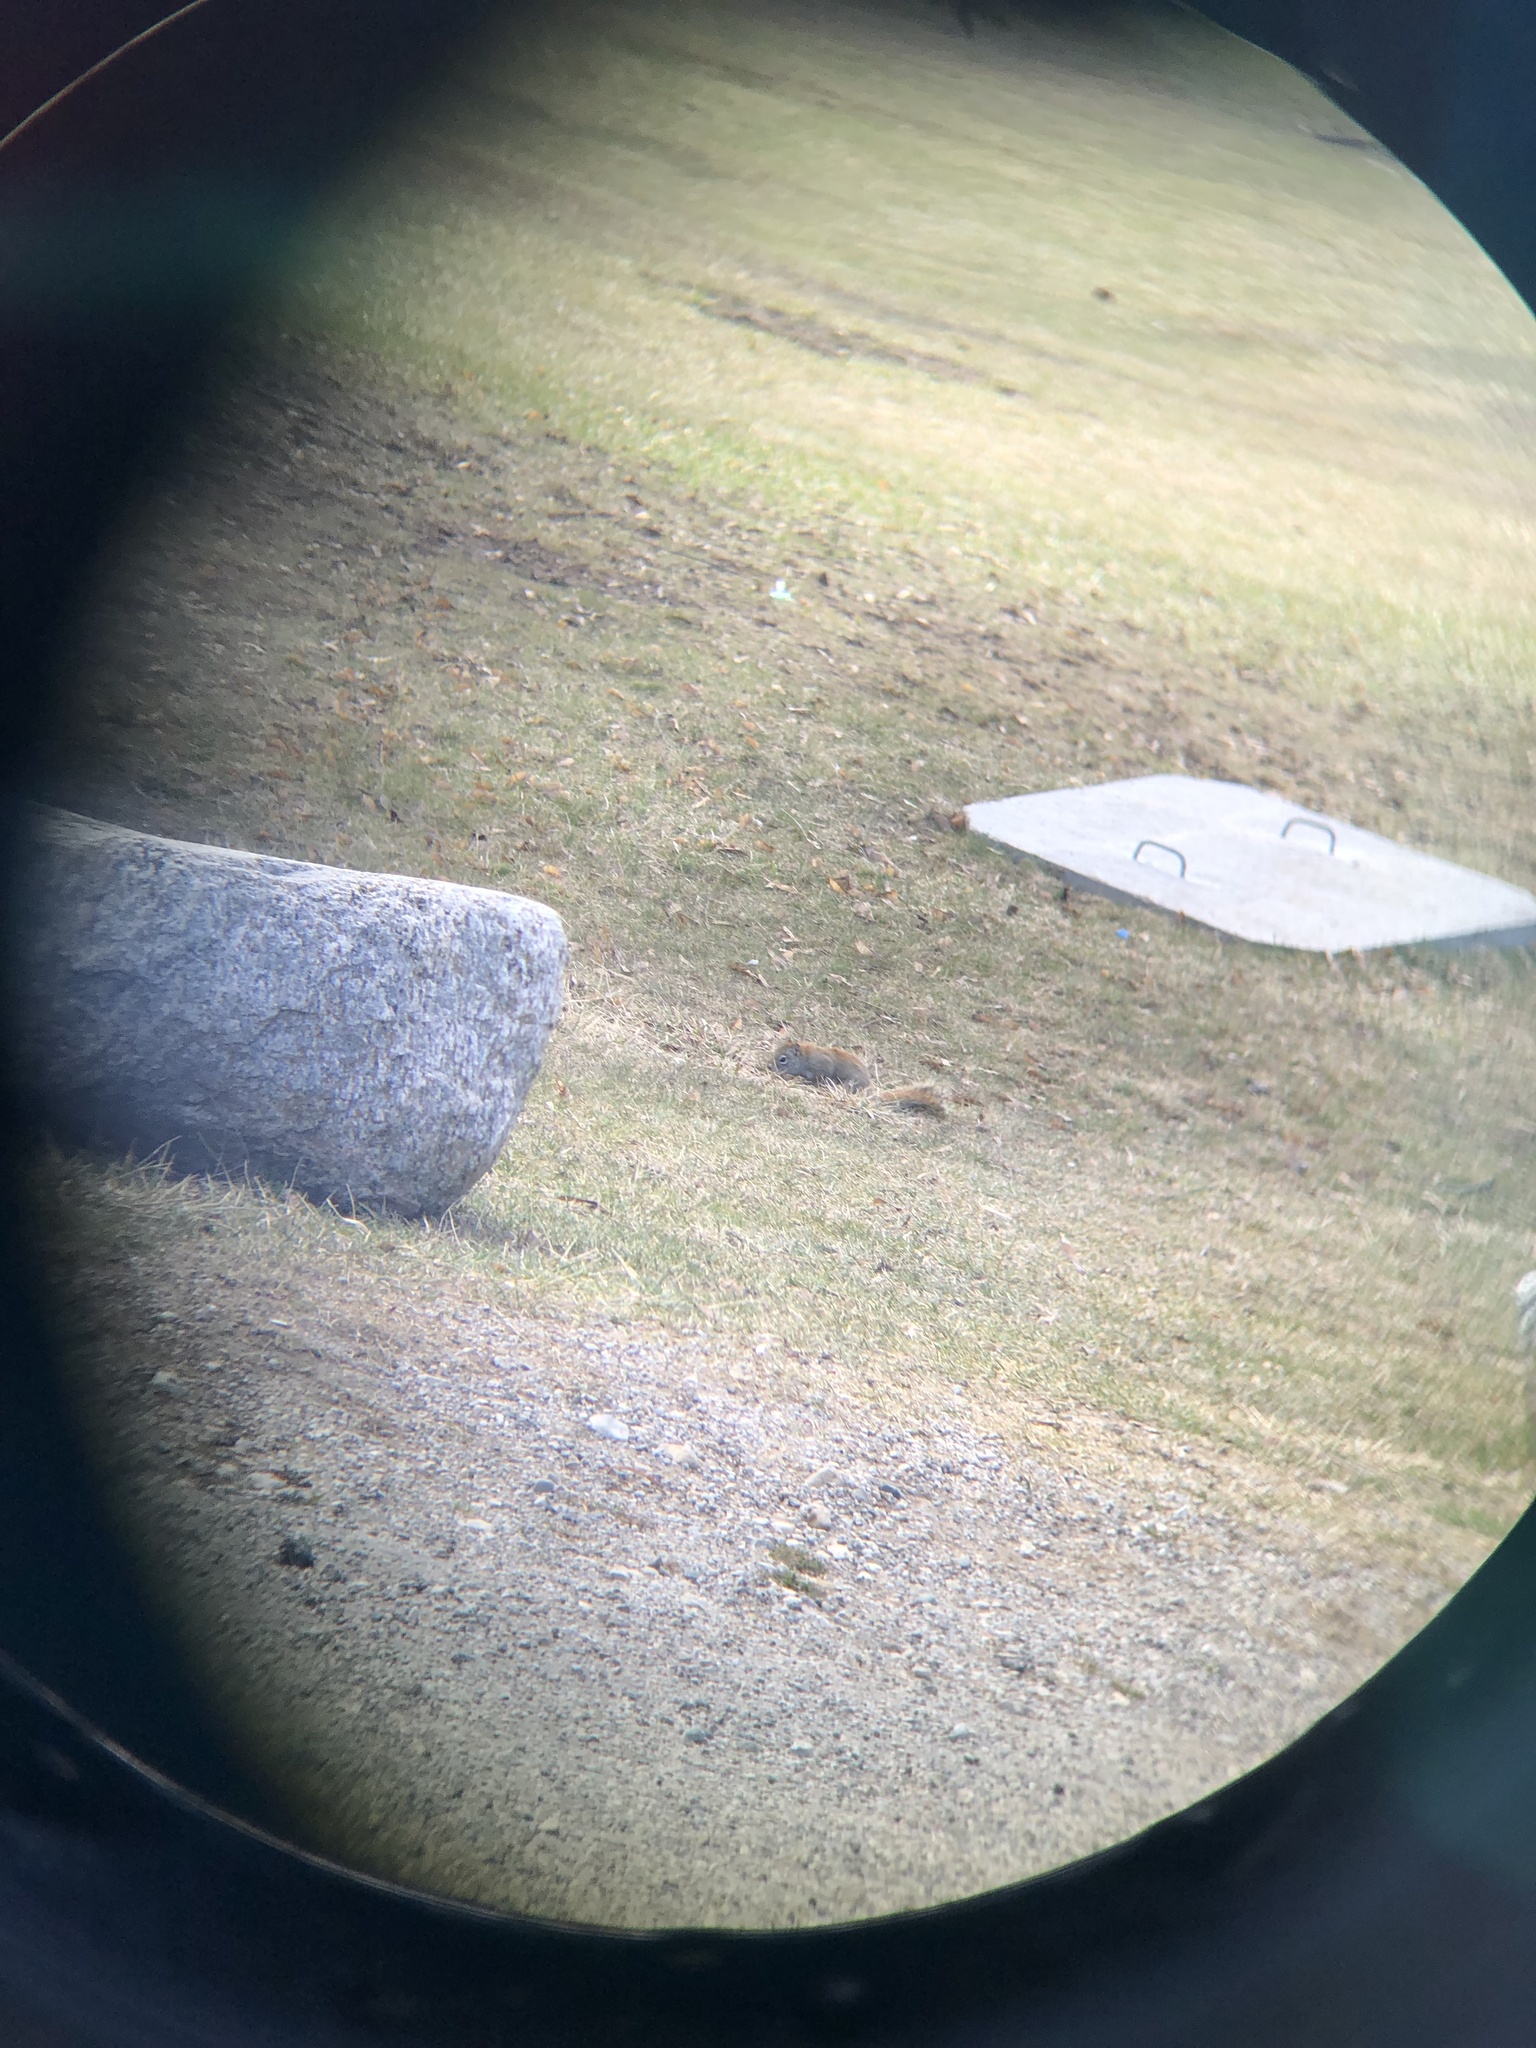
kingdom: Animalia
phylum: Chordata
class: Mammalia
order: Rodentia
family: Sciuridae
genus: Tamiasciurus
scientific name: Tamiasciurus hudsonicus
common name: Red squirrel
